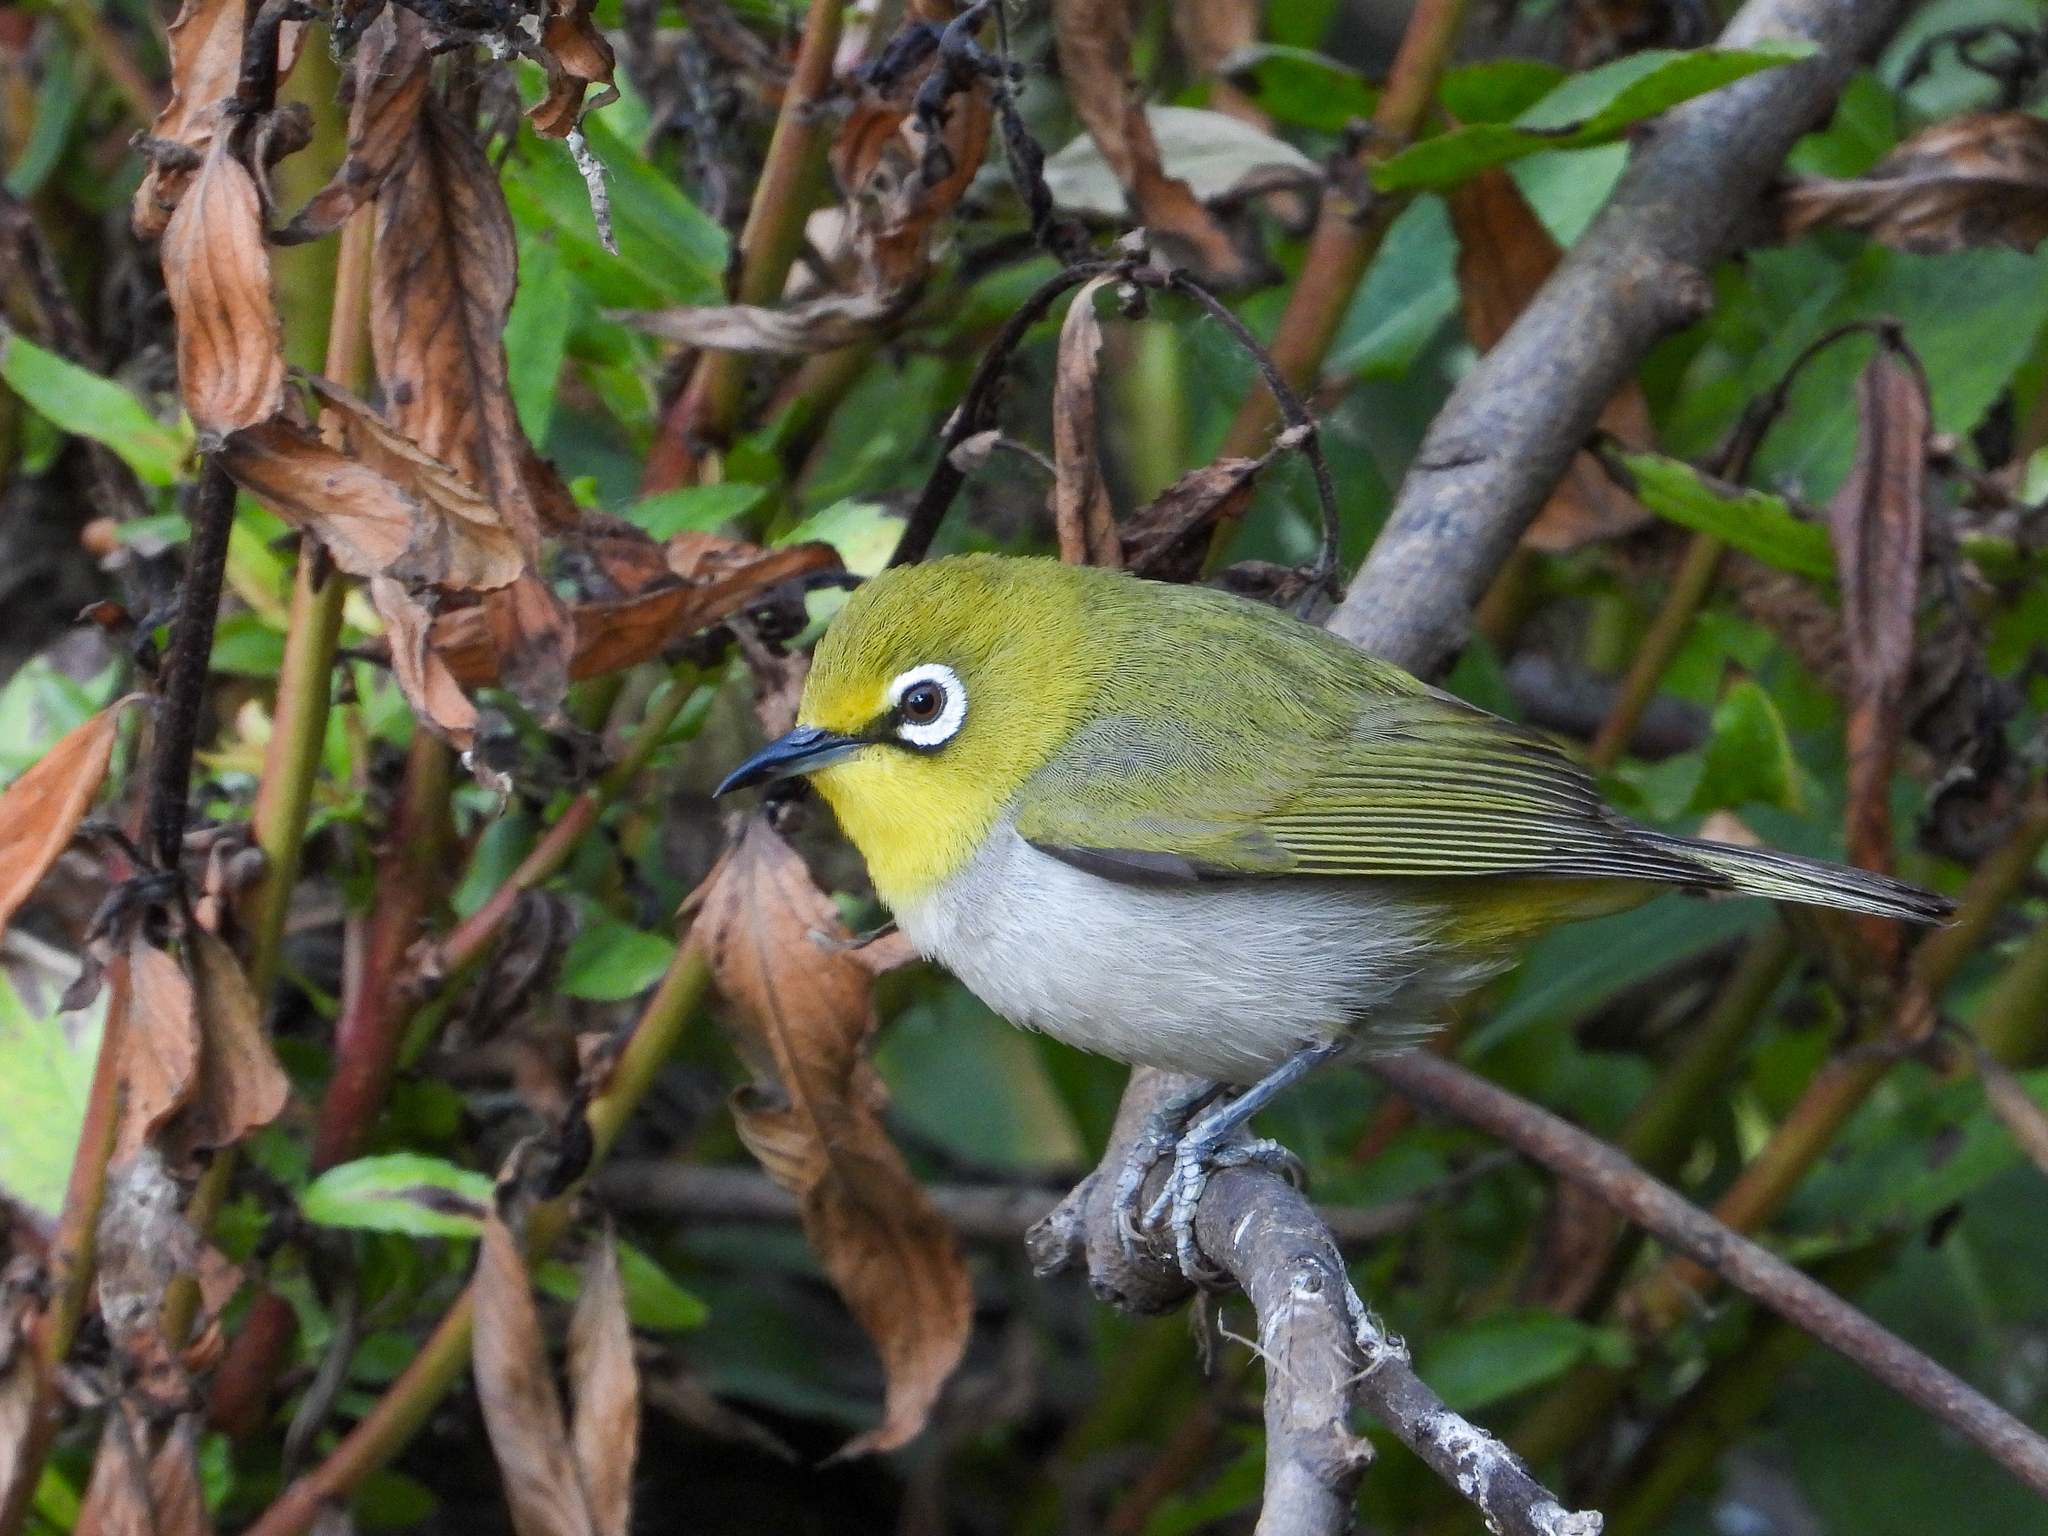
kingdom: Animalia
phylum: Chordata
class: Aves
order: Passeriformes
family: Zosteropidae
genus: Zosterops
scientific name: Zosterops simplex
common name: Swinhoe's white-eye
